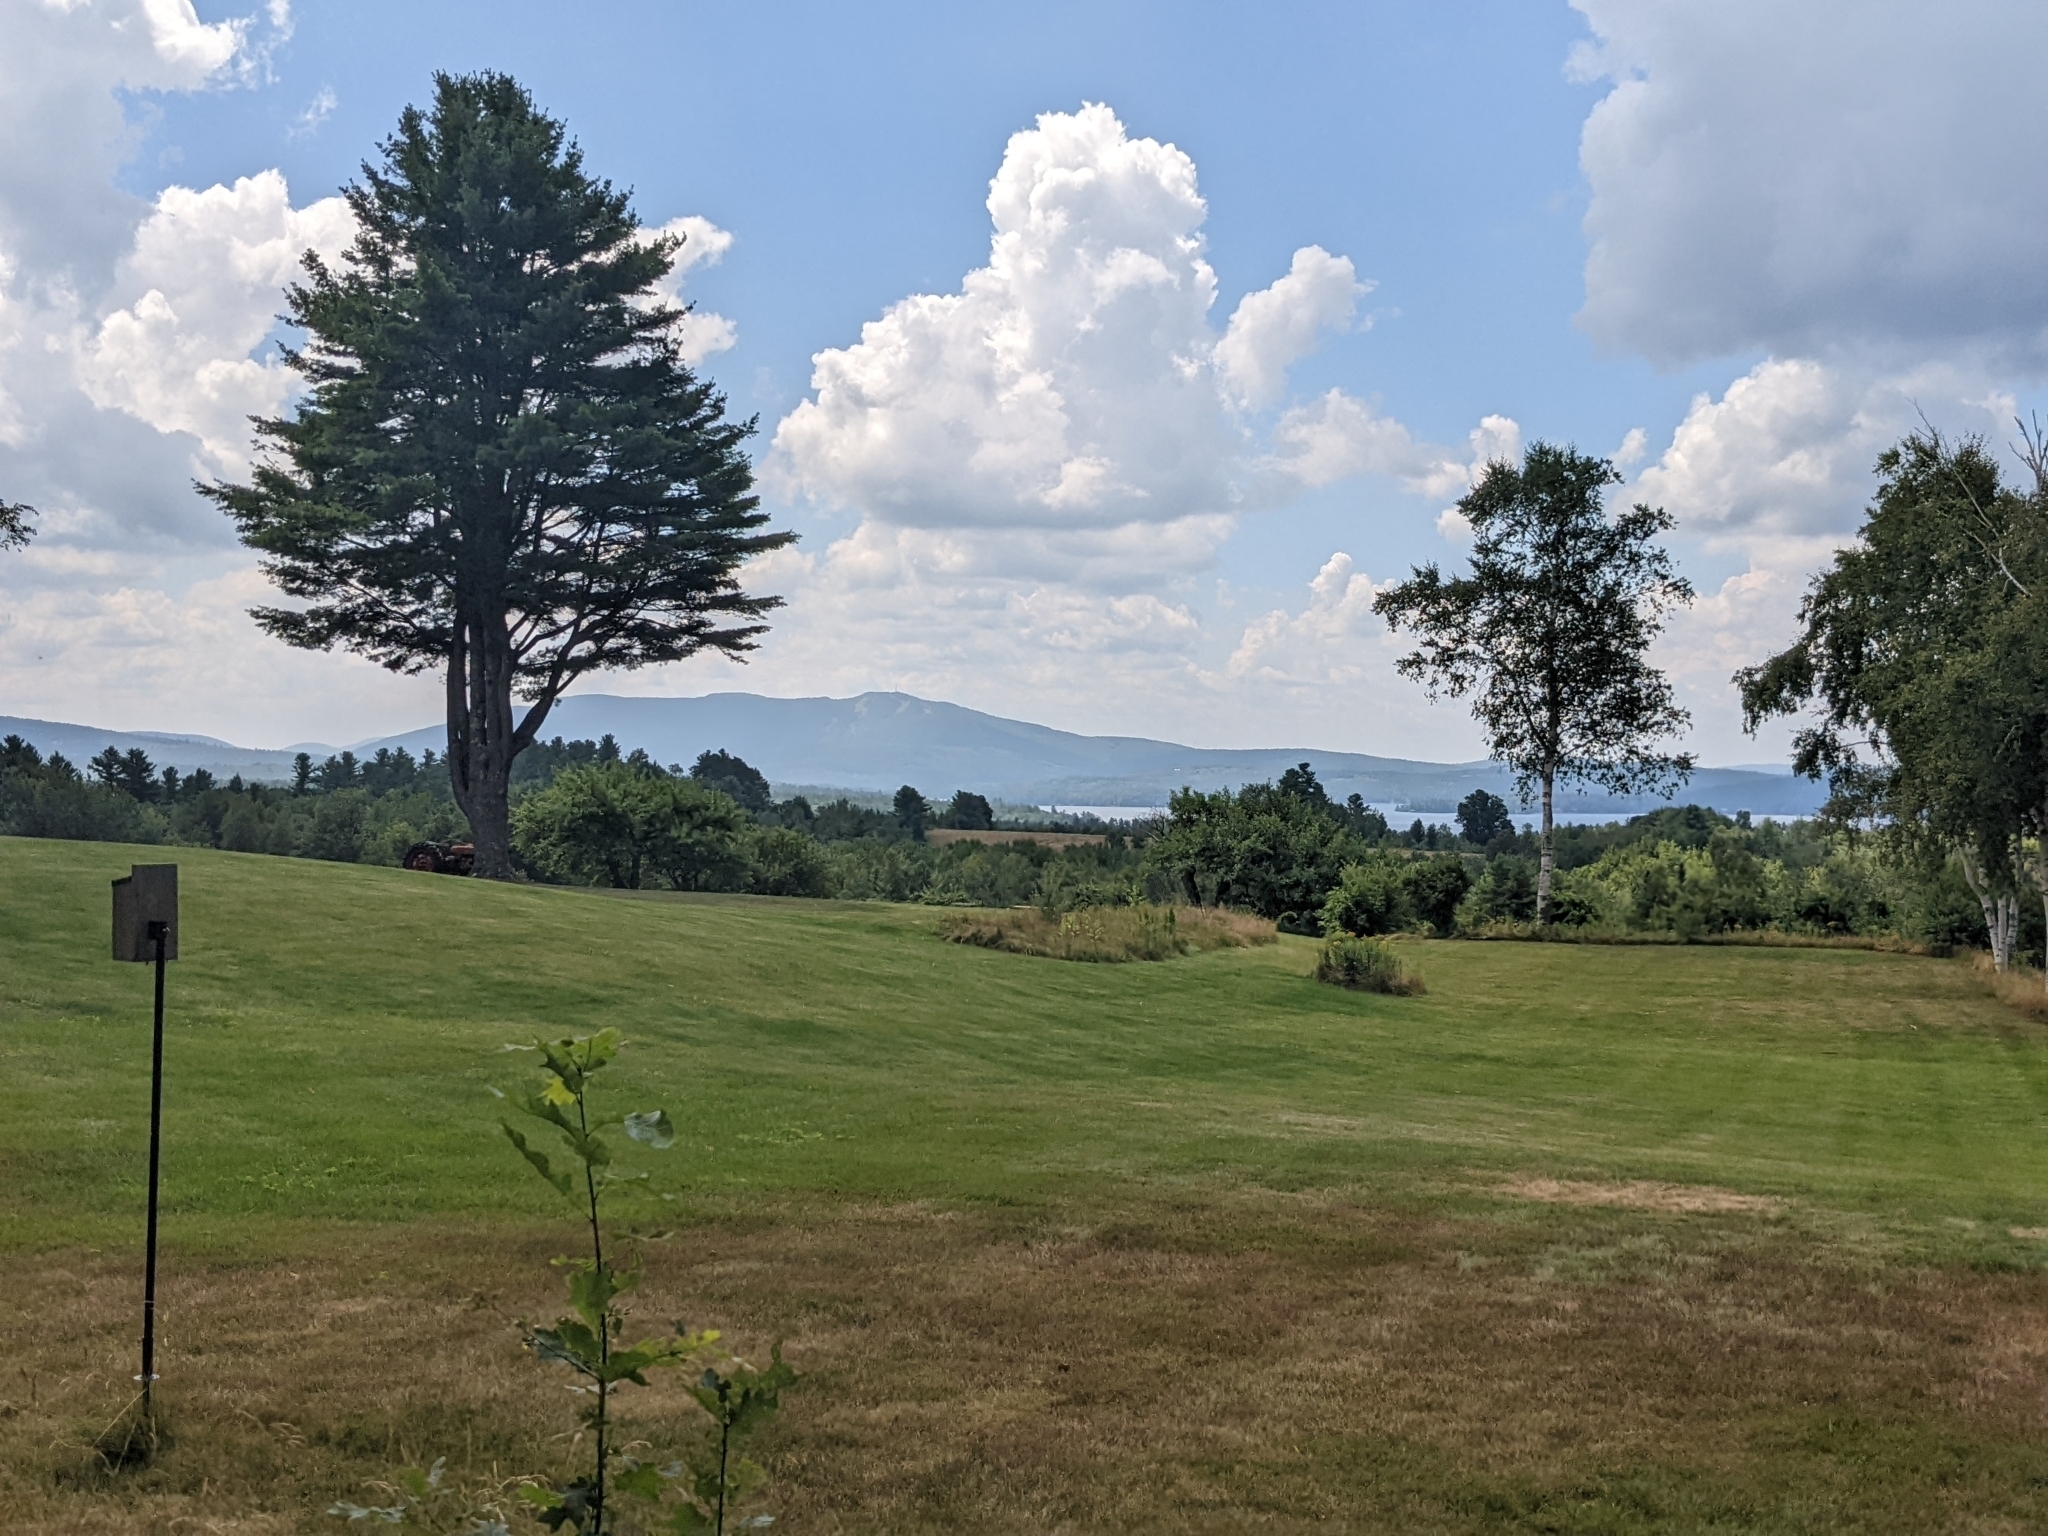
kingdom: Plantae
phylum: Tracheophyta
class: Pinopsida
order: Pinales
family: Pinaceae
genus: Pinus
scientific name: Pinus strobus
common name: Weymouth pine
